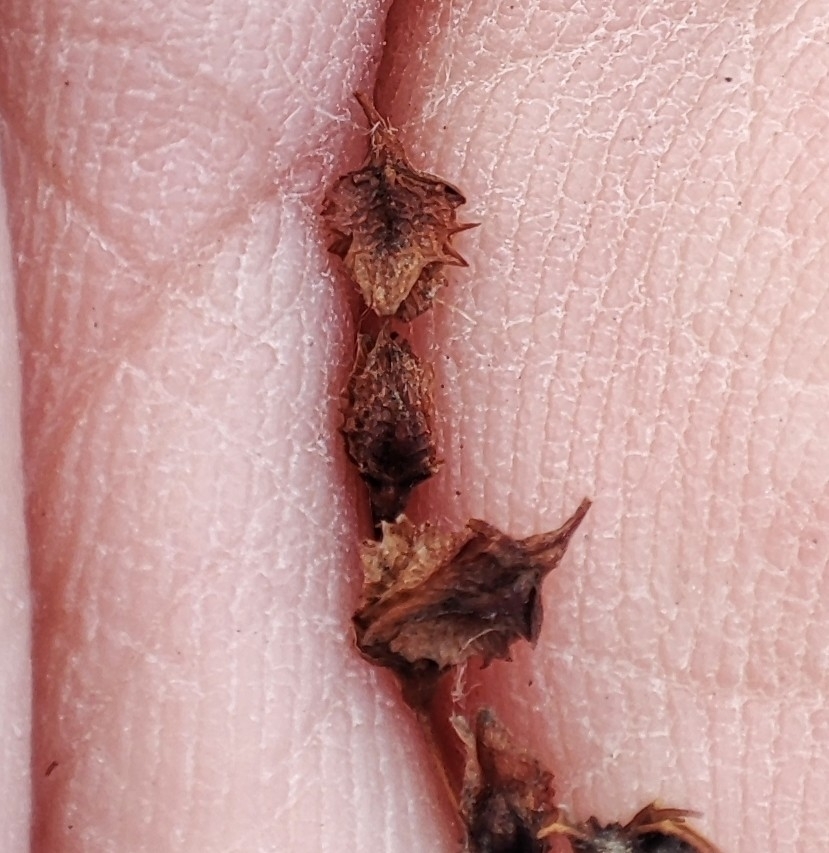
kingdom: Plantae
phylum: Tracheophyta
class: Magnoliopsida
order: Caryophyllales
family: Polygonaceae
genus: Rumex
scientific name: Rumex stenophyllus
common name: Narrowleaf dock
